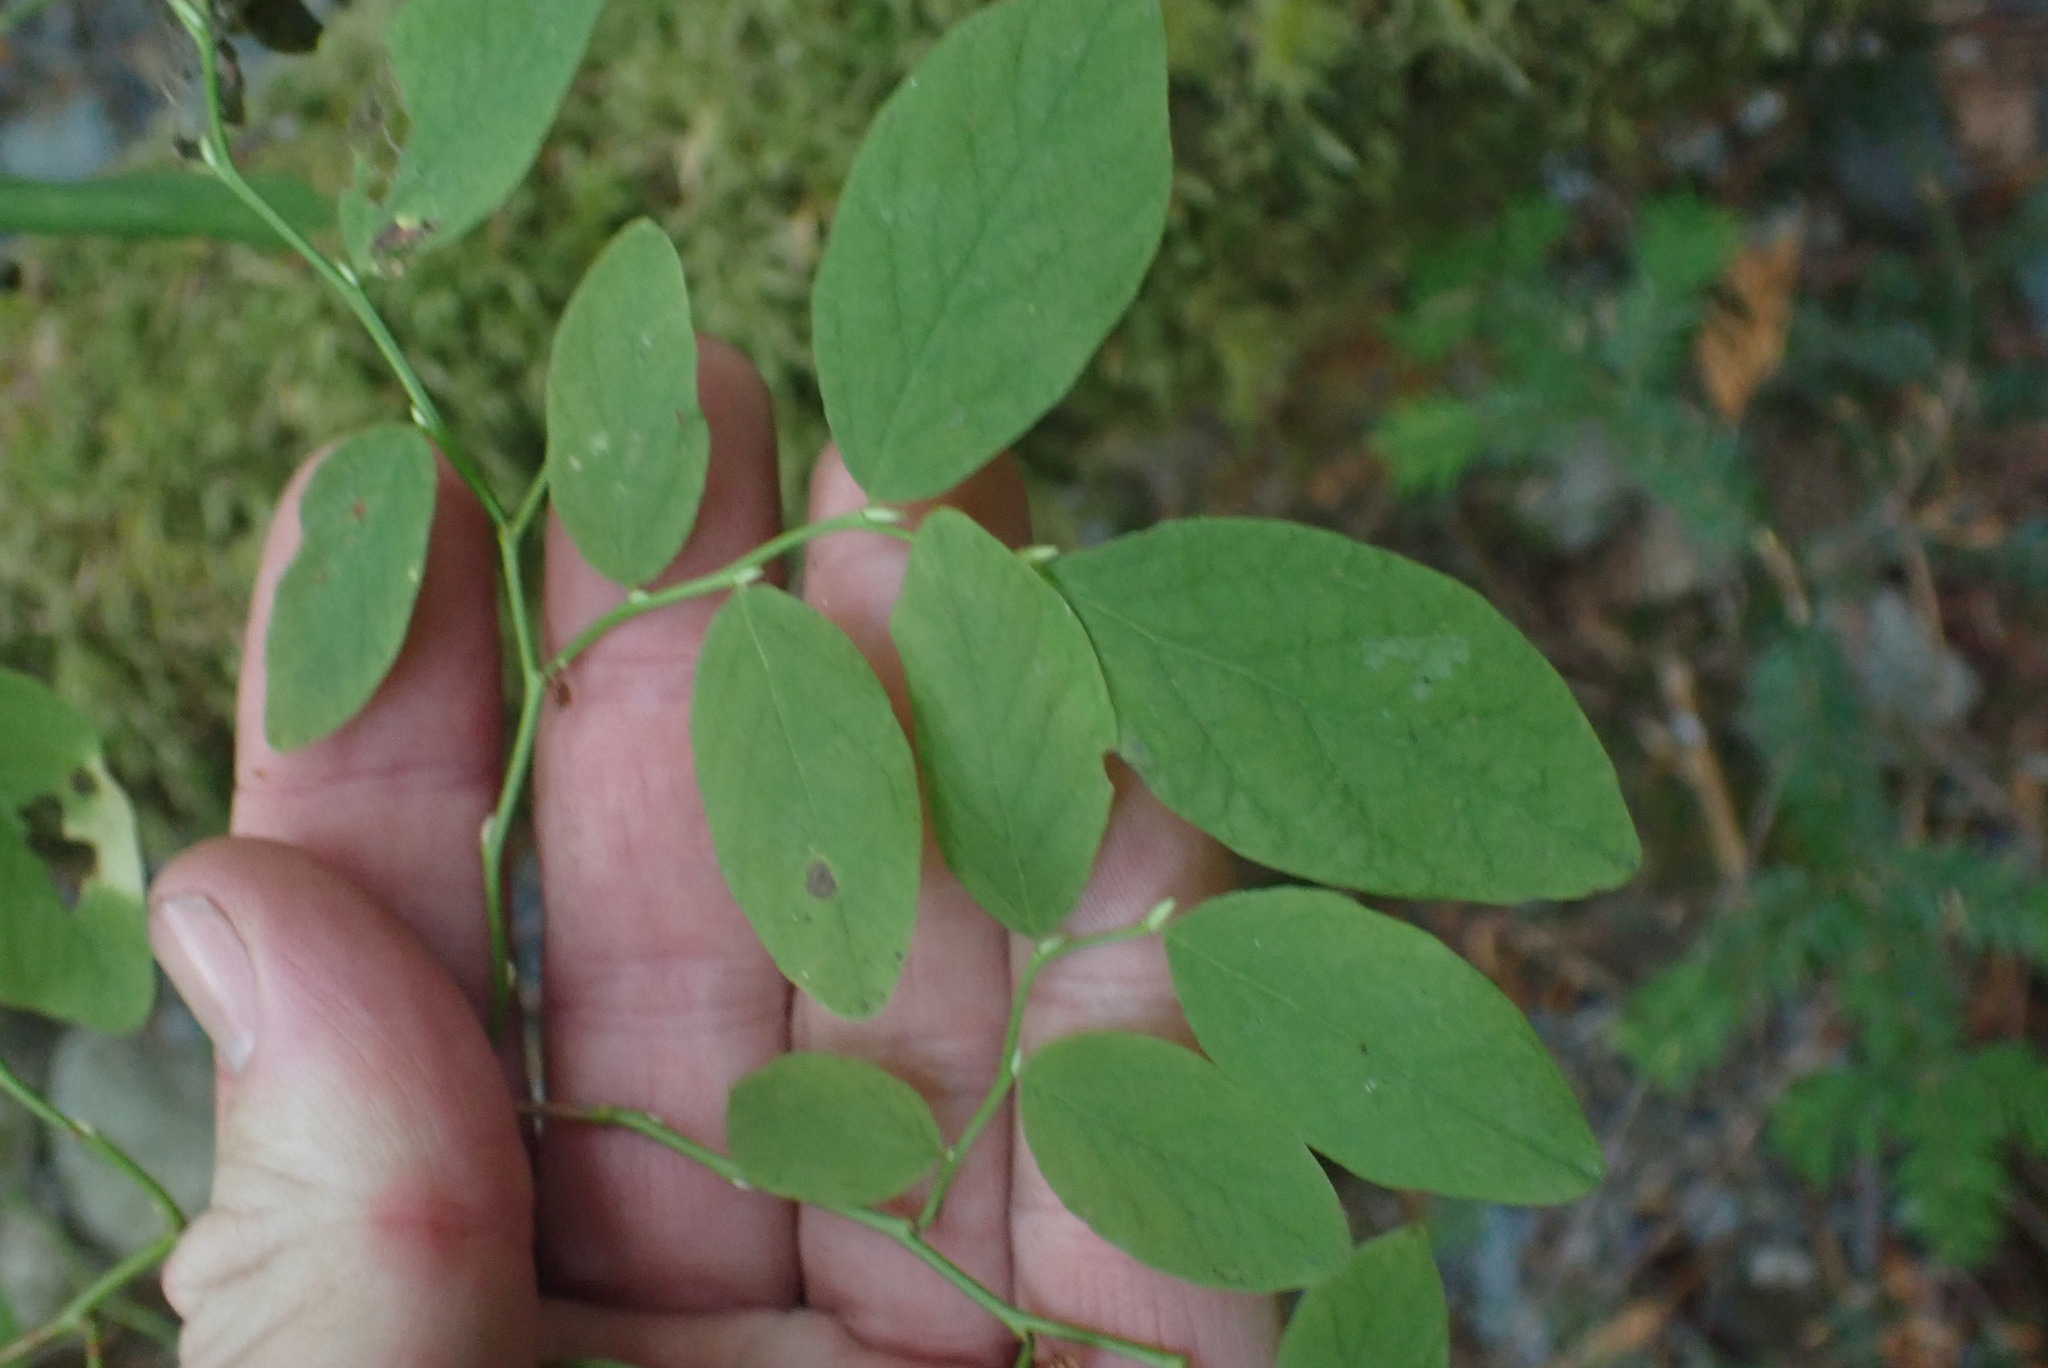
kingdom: Plantae
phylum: Tracheophyta
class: Magnoliopsida
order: Ericales
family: Ericaceae
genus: Vaccinium
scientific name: Vaccinium ovalifolium
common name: Early blueberry
